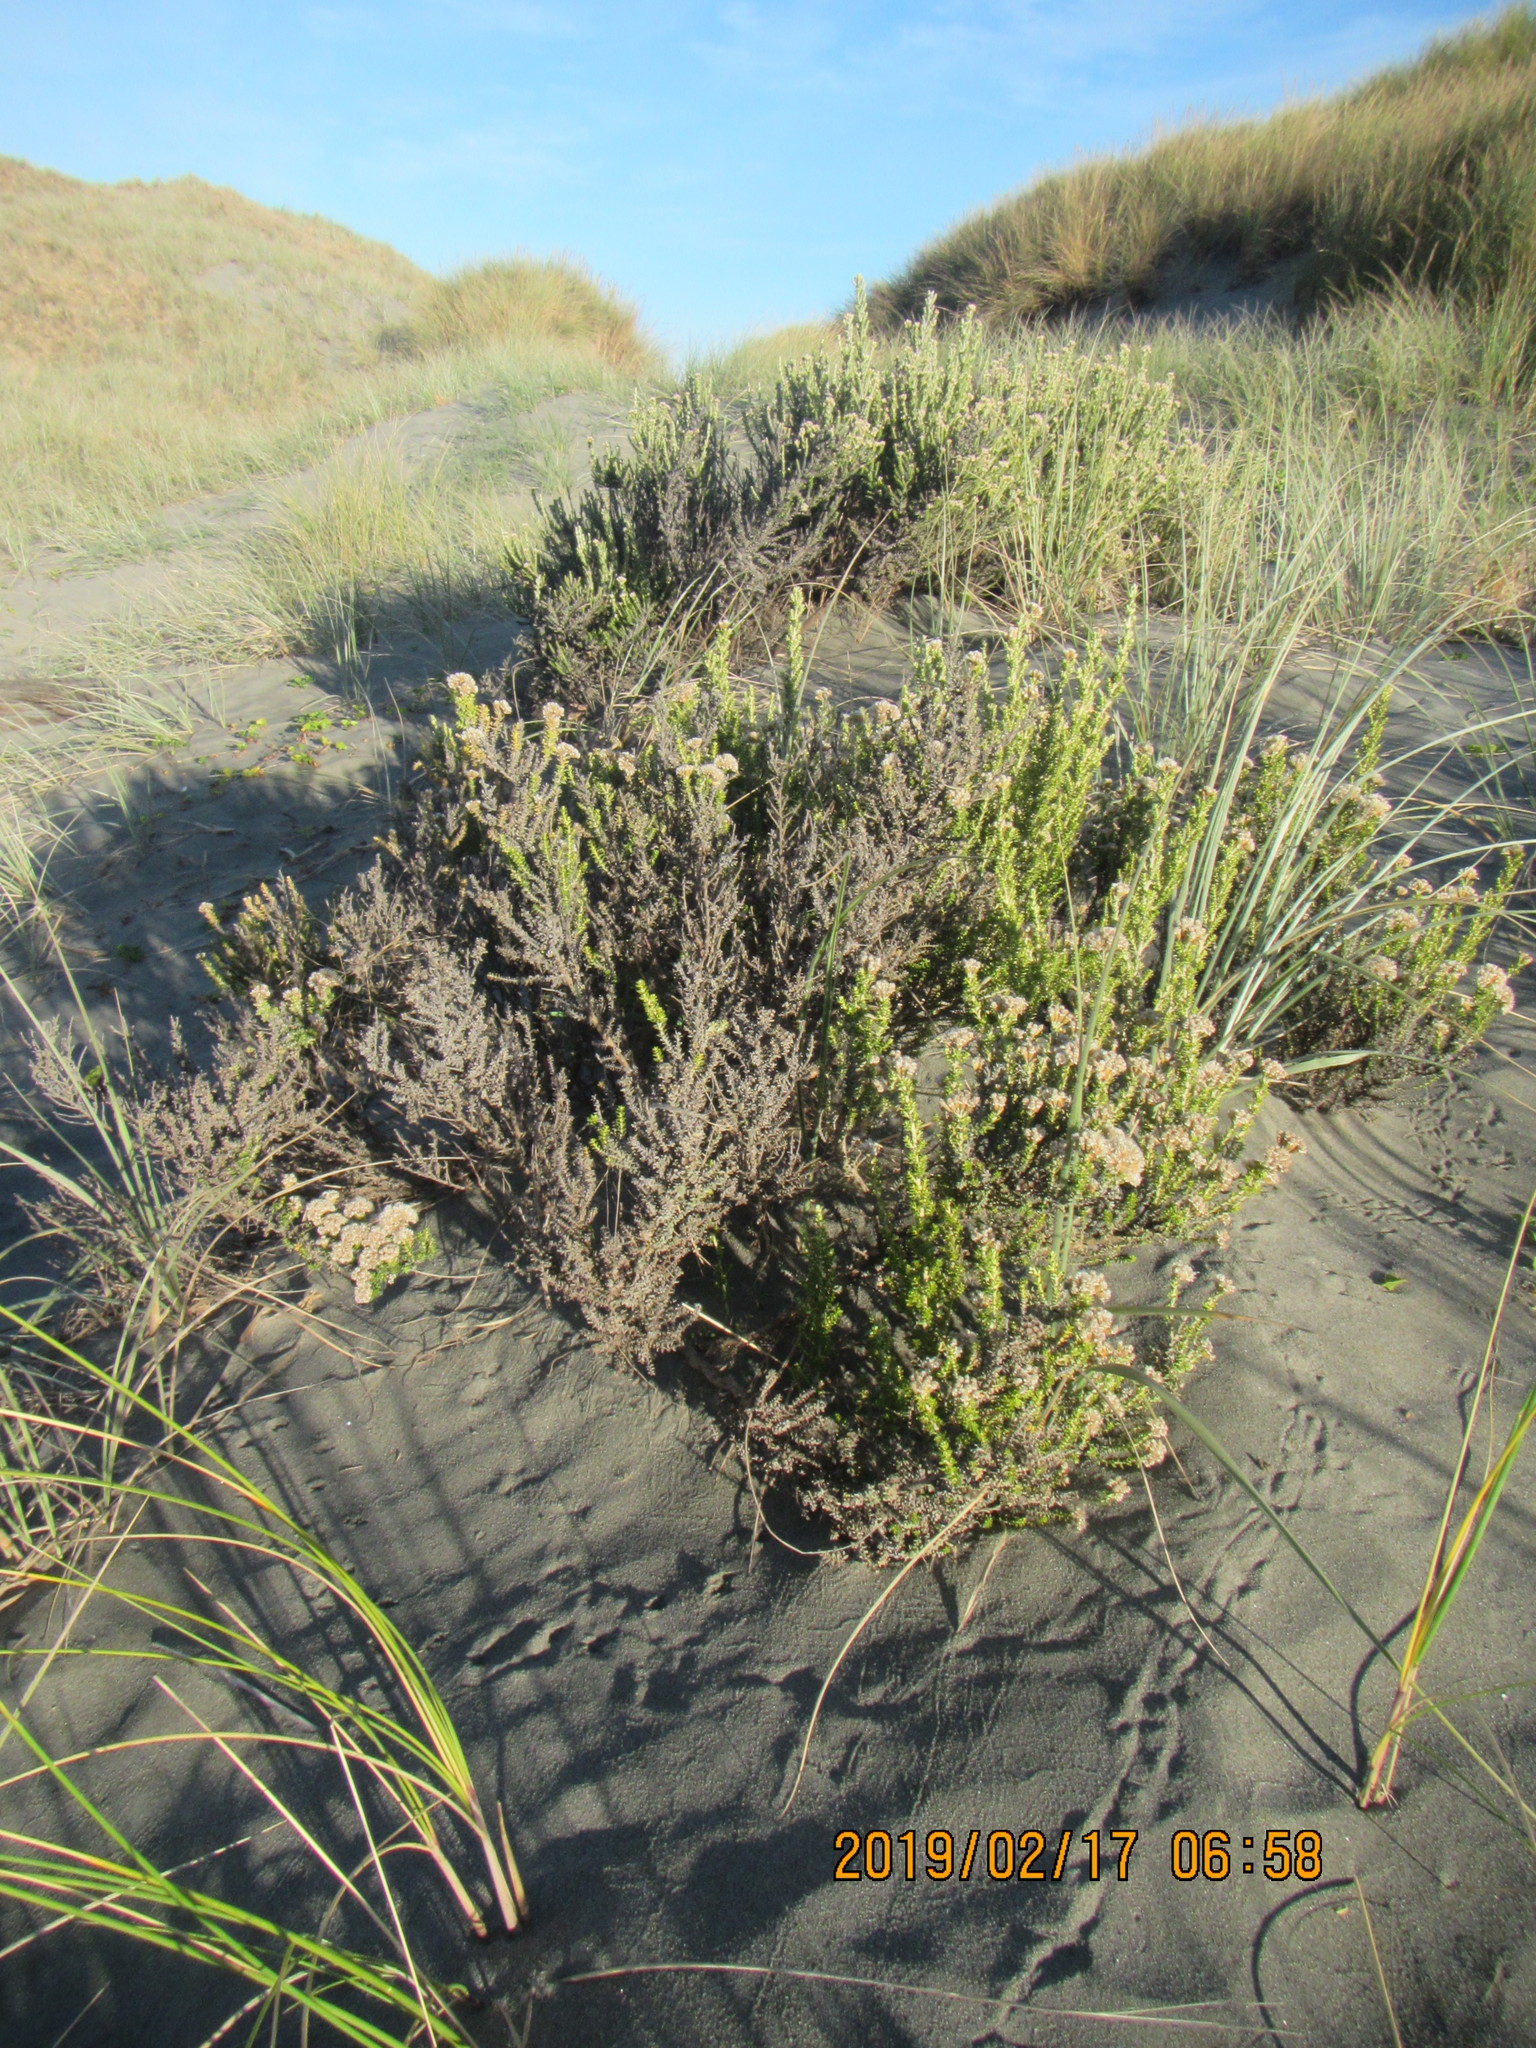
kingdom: Plantae
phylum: Tracheophyta
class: Magnoliopsida
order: Asterales
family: Asteraceae
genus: Ozothamnus
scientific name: Ozothamnus leptophyllus
